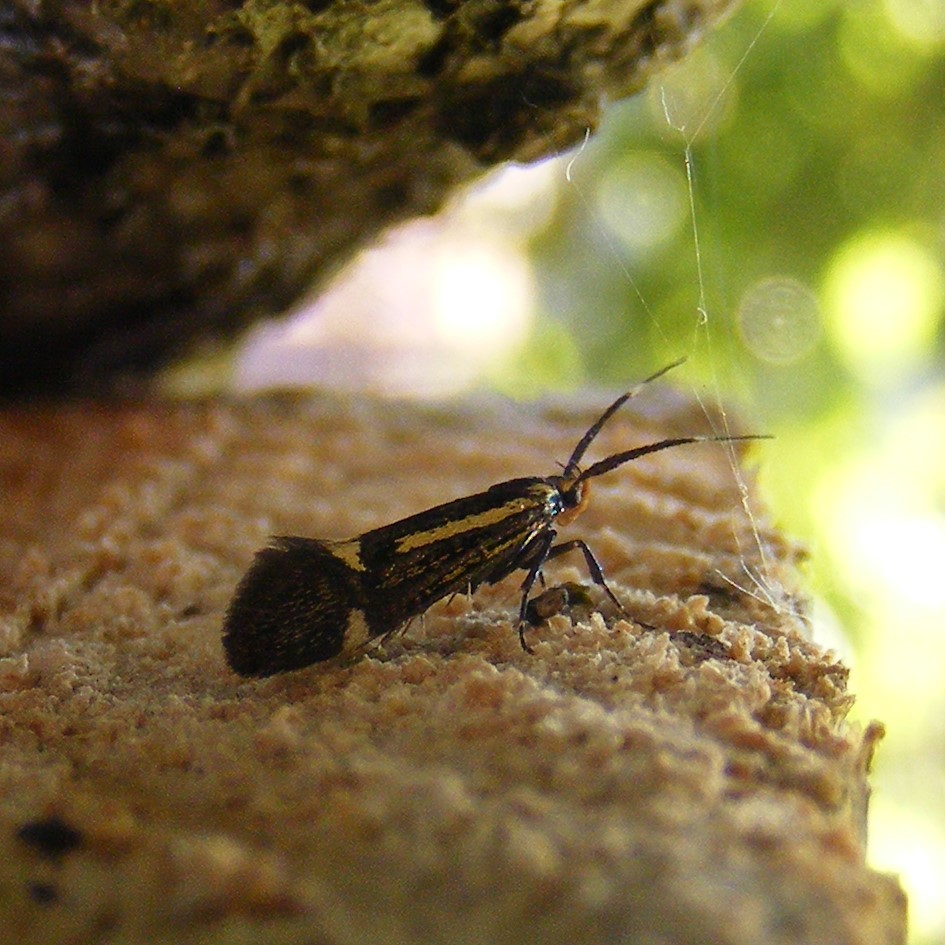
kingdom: Animalia
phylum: Arthropoda
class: Insecta
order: Lepidoptera
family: Oecophoridae
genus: Dafa
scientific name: Dafa Esperia sulphurella
